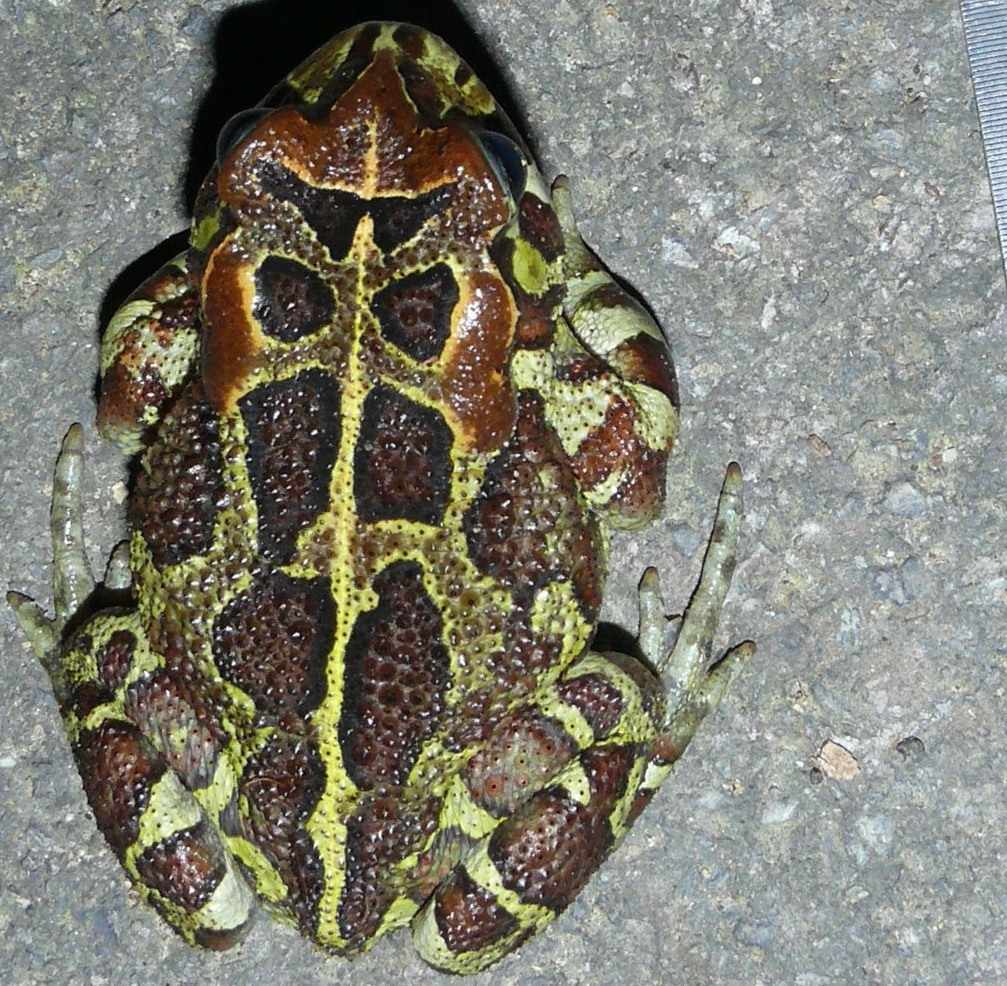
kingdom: Animalia
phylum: Chordata
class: Amphibia
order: Anura
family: Bufonidae
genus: Sclerophrys
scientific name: Sclerophrys pantherina
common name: Panther toad
